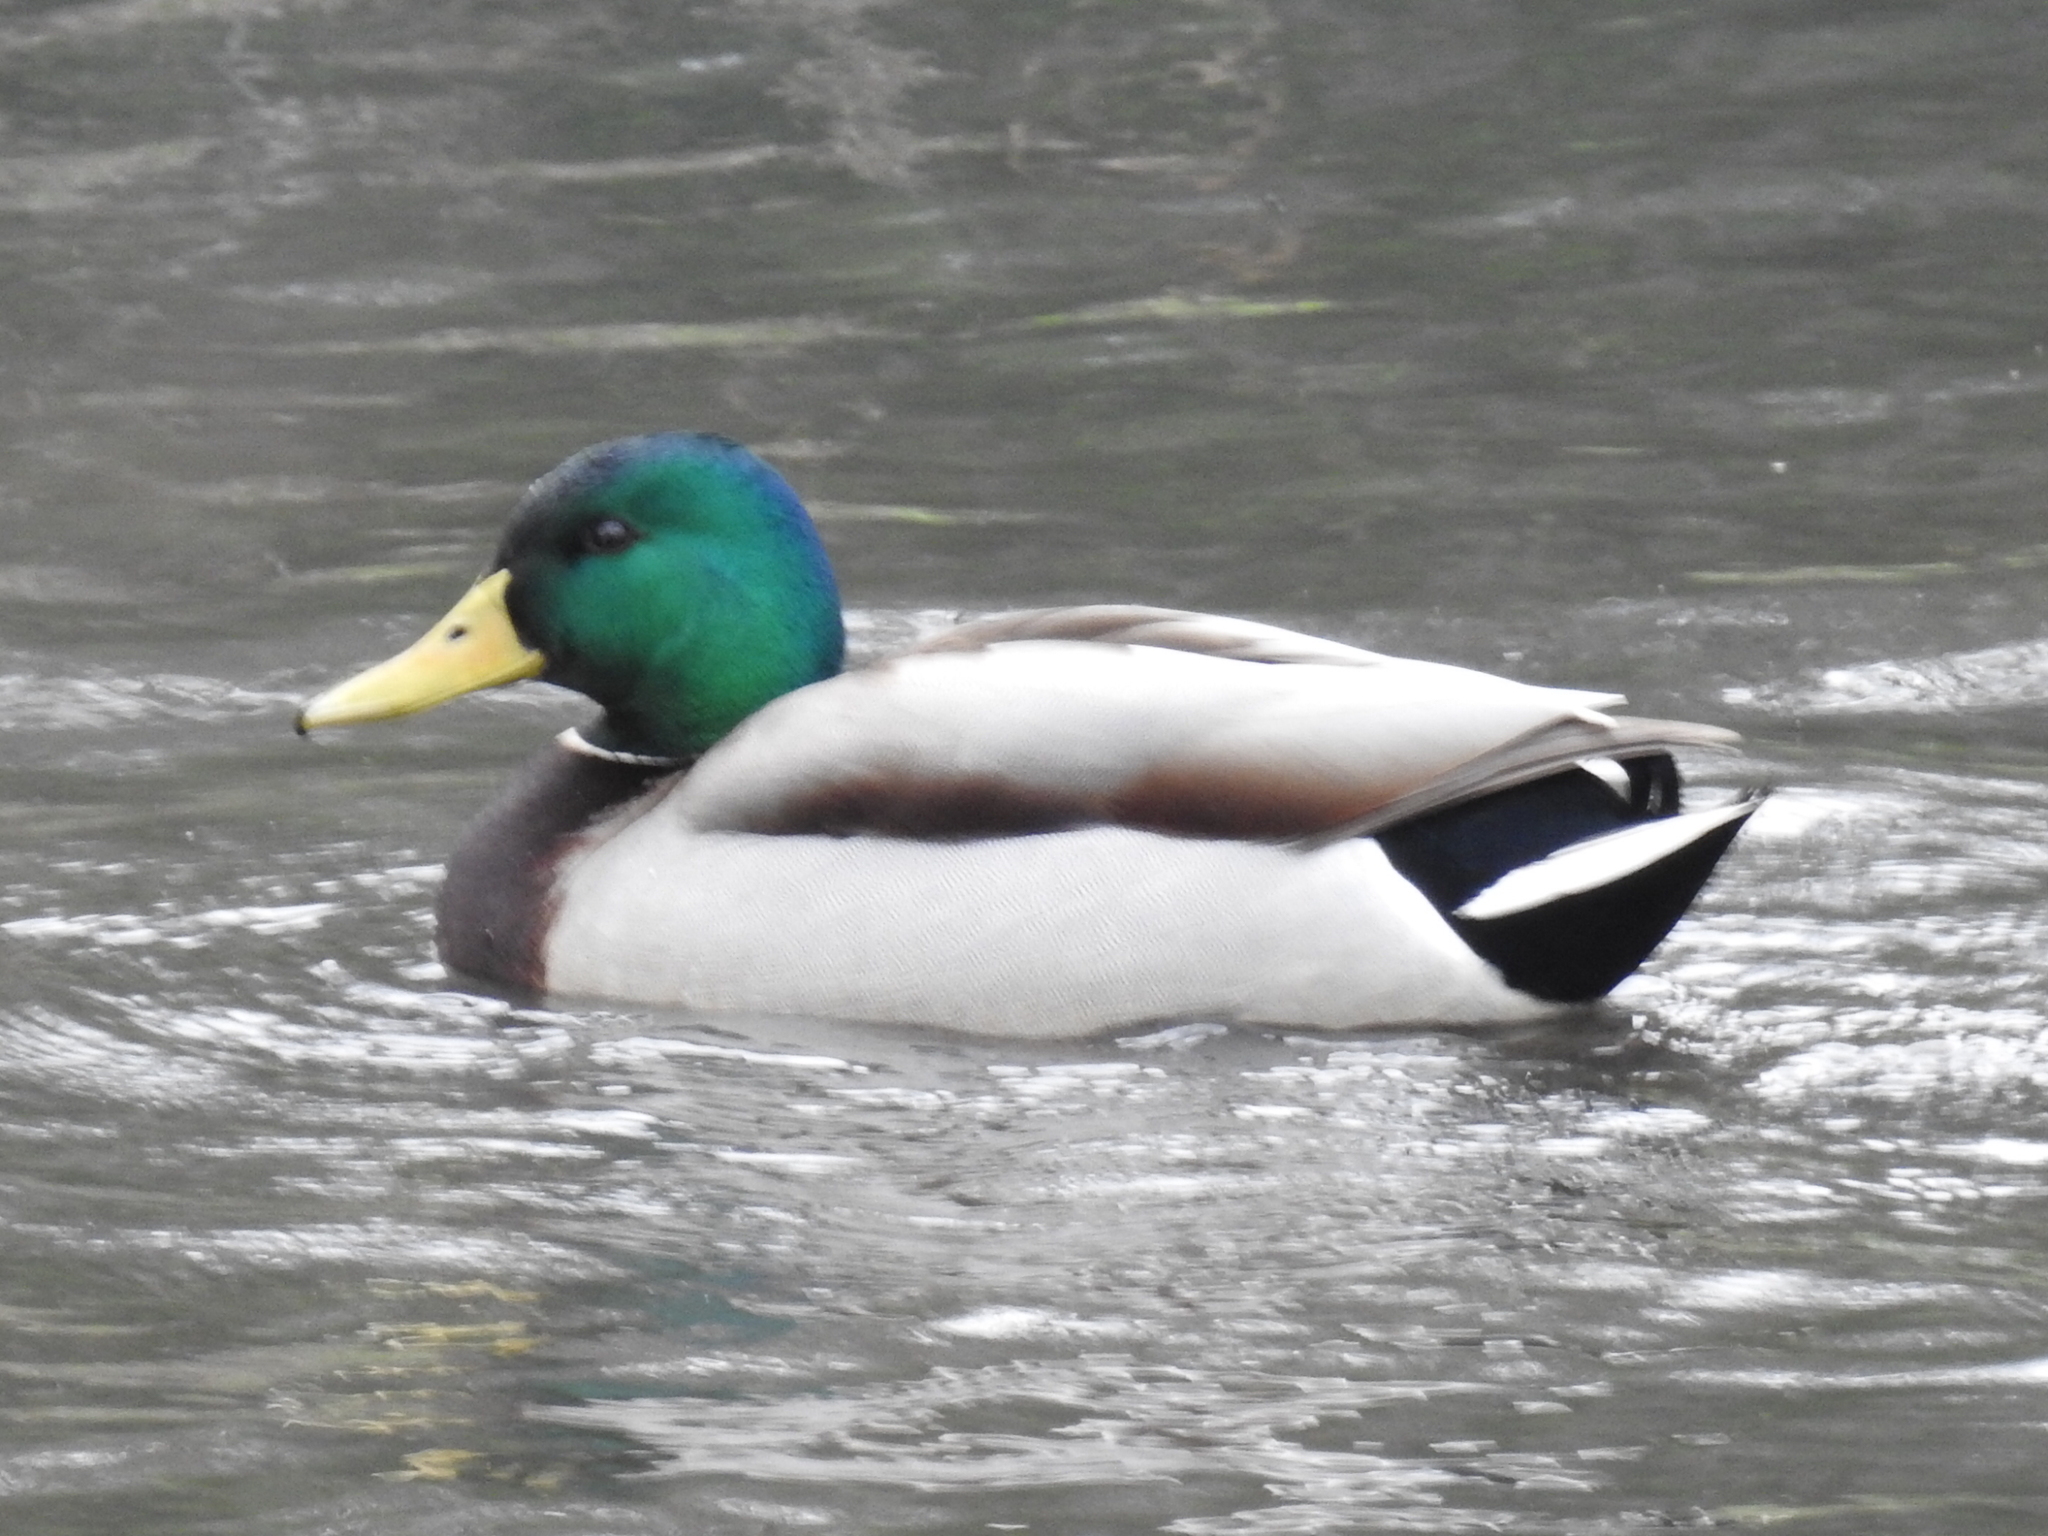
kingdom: Animalia
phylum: Chordata
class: Aves
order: Anseriformes
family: Anatidae
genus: Anas
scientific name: Anas platyrhynchos
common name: Mallard
